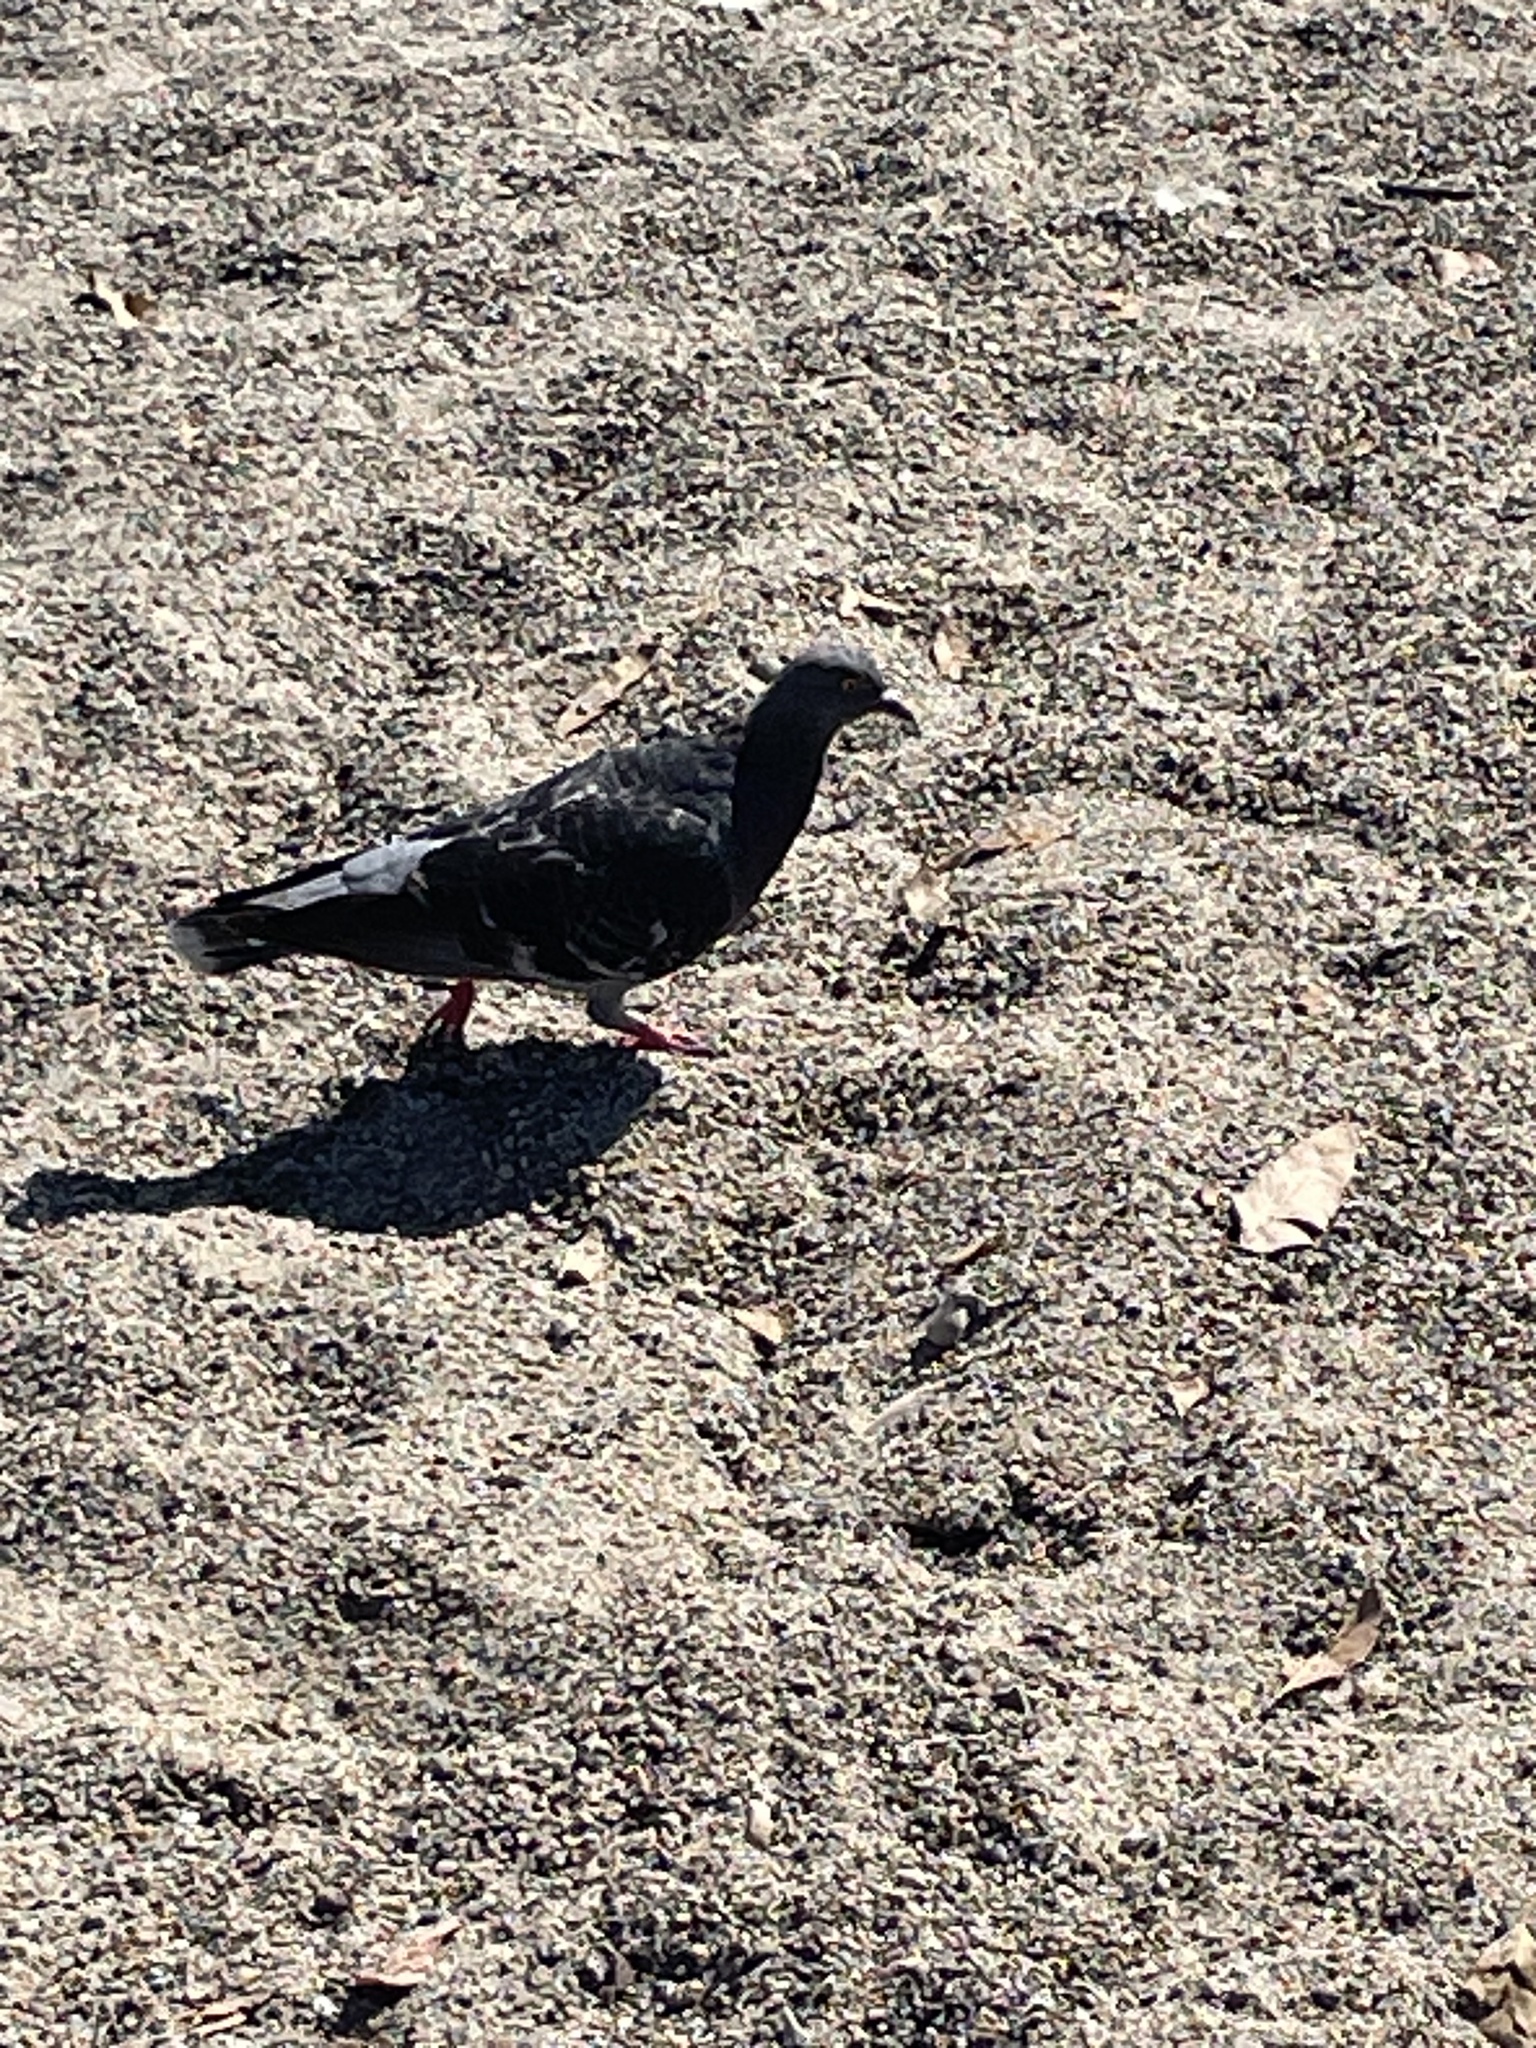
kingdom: Animalia
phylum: Chordata
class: Aves
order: Columbiformes
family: Columbidae
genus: Columba
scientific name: Columba livia
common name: Rock pigeon
